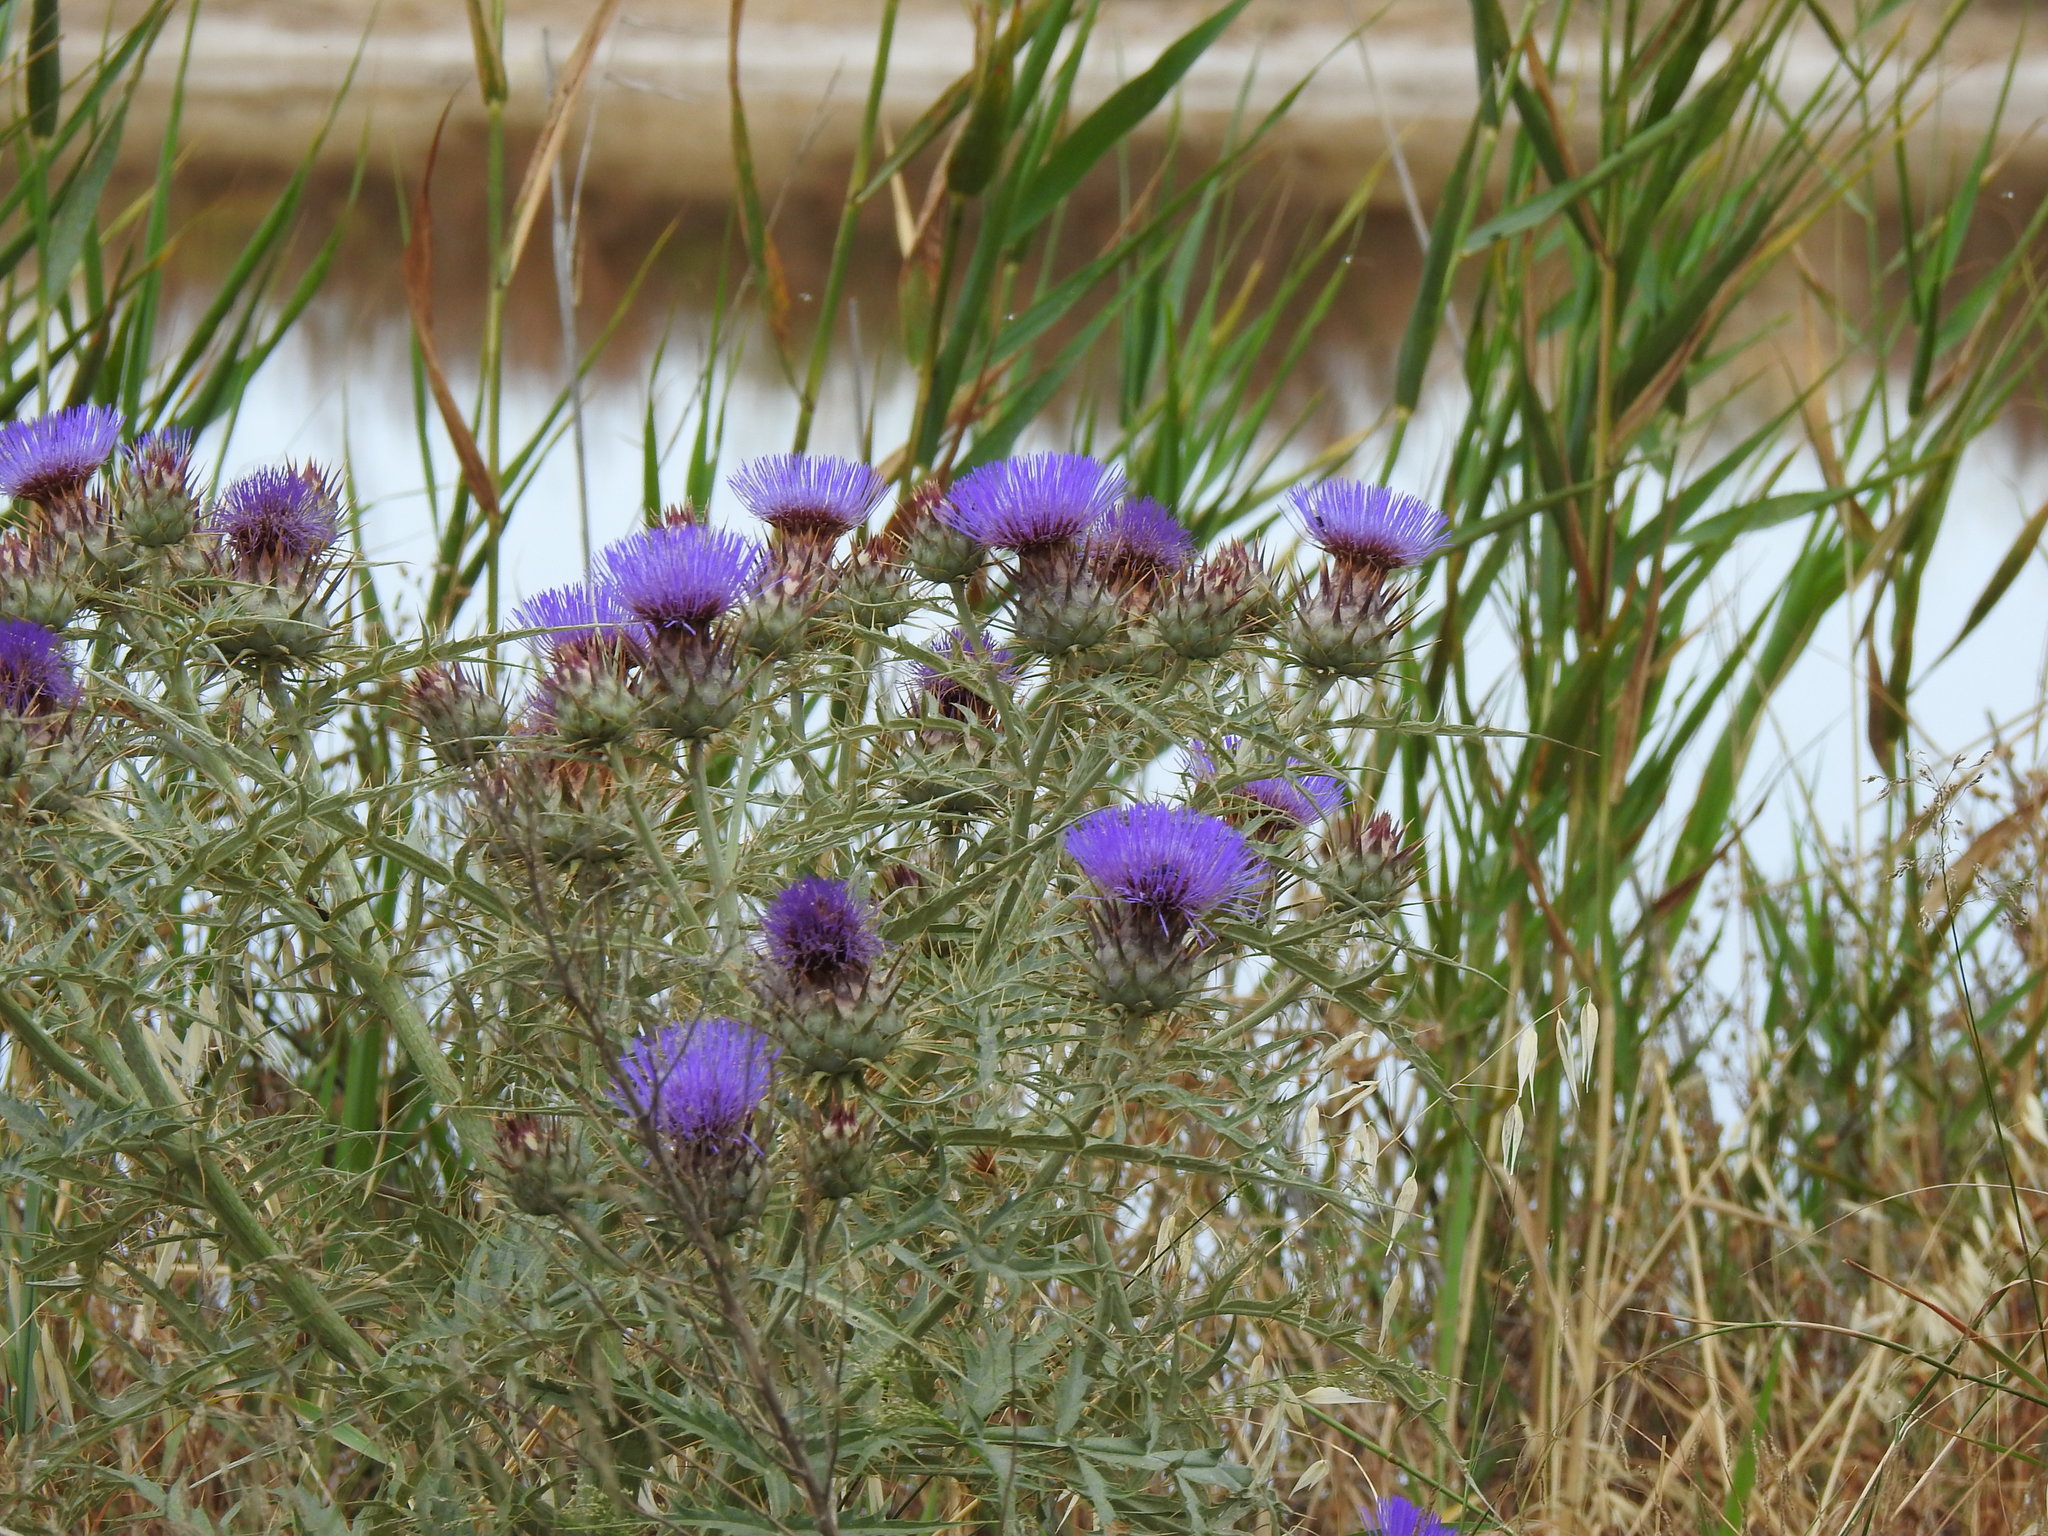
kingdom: Plantae
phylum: Tracheophyta
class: Magnoliopsida
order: Asterales
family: Asteraceae
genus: Cynara
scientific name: Cynara cardunculus
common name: Globe artichoke
